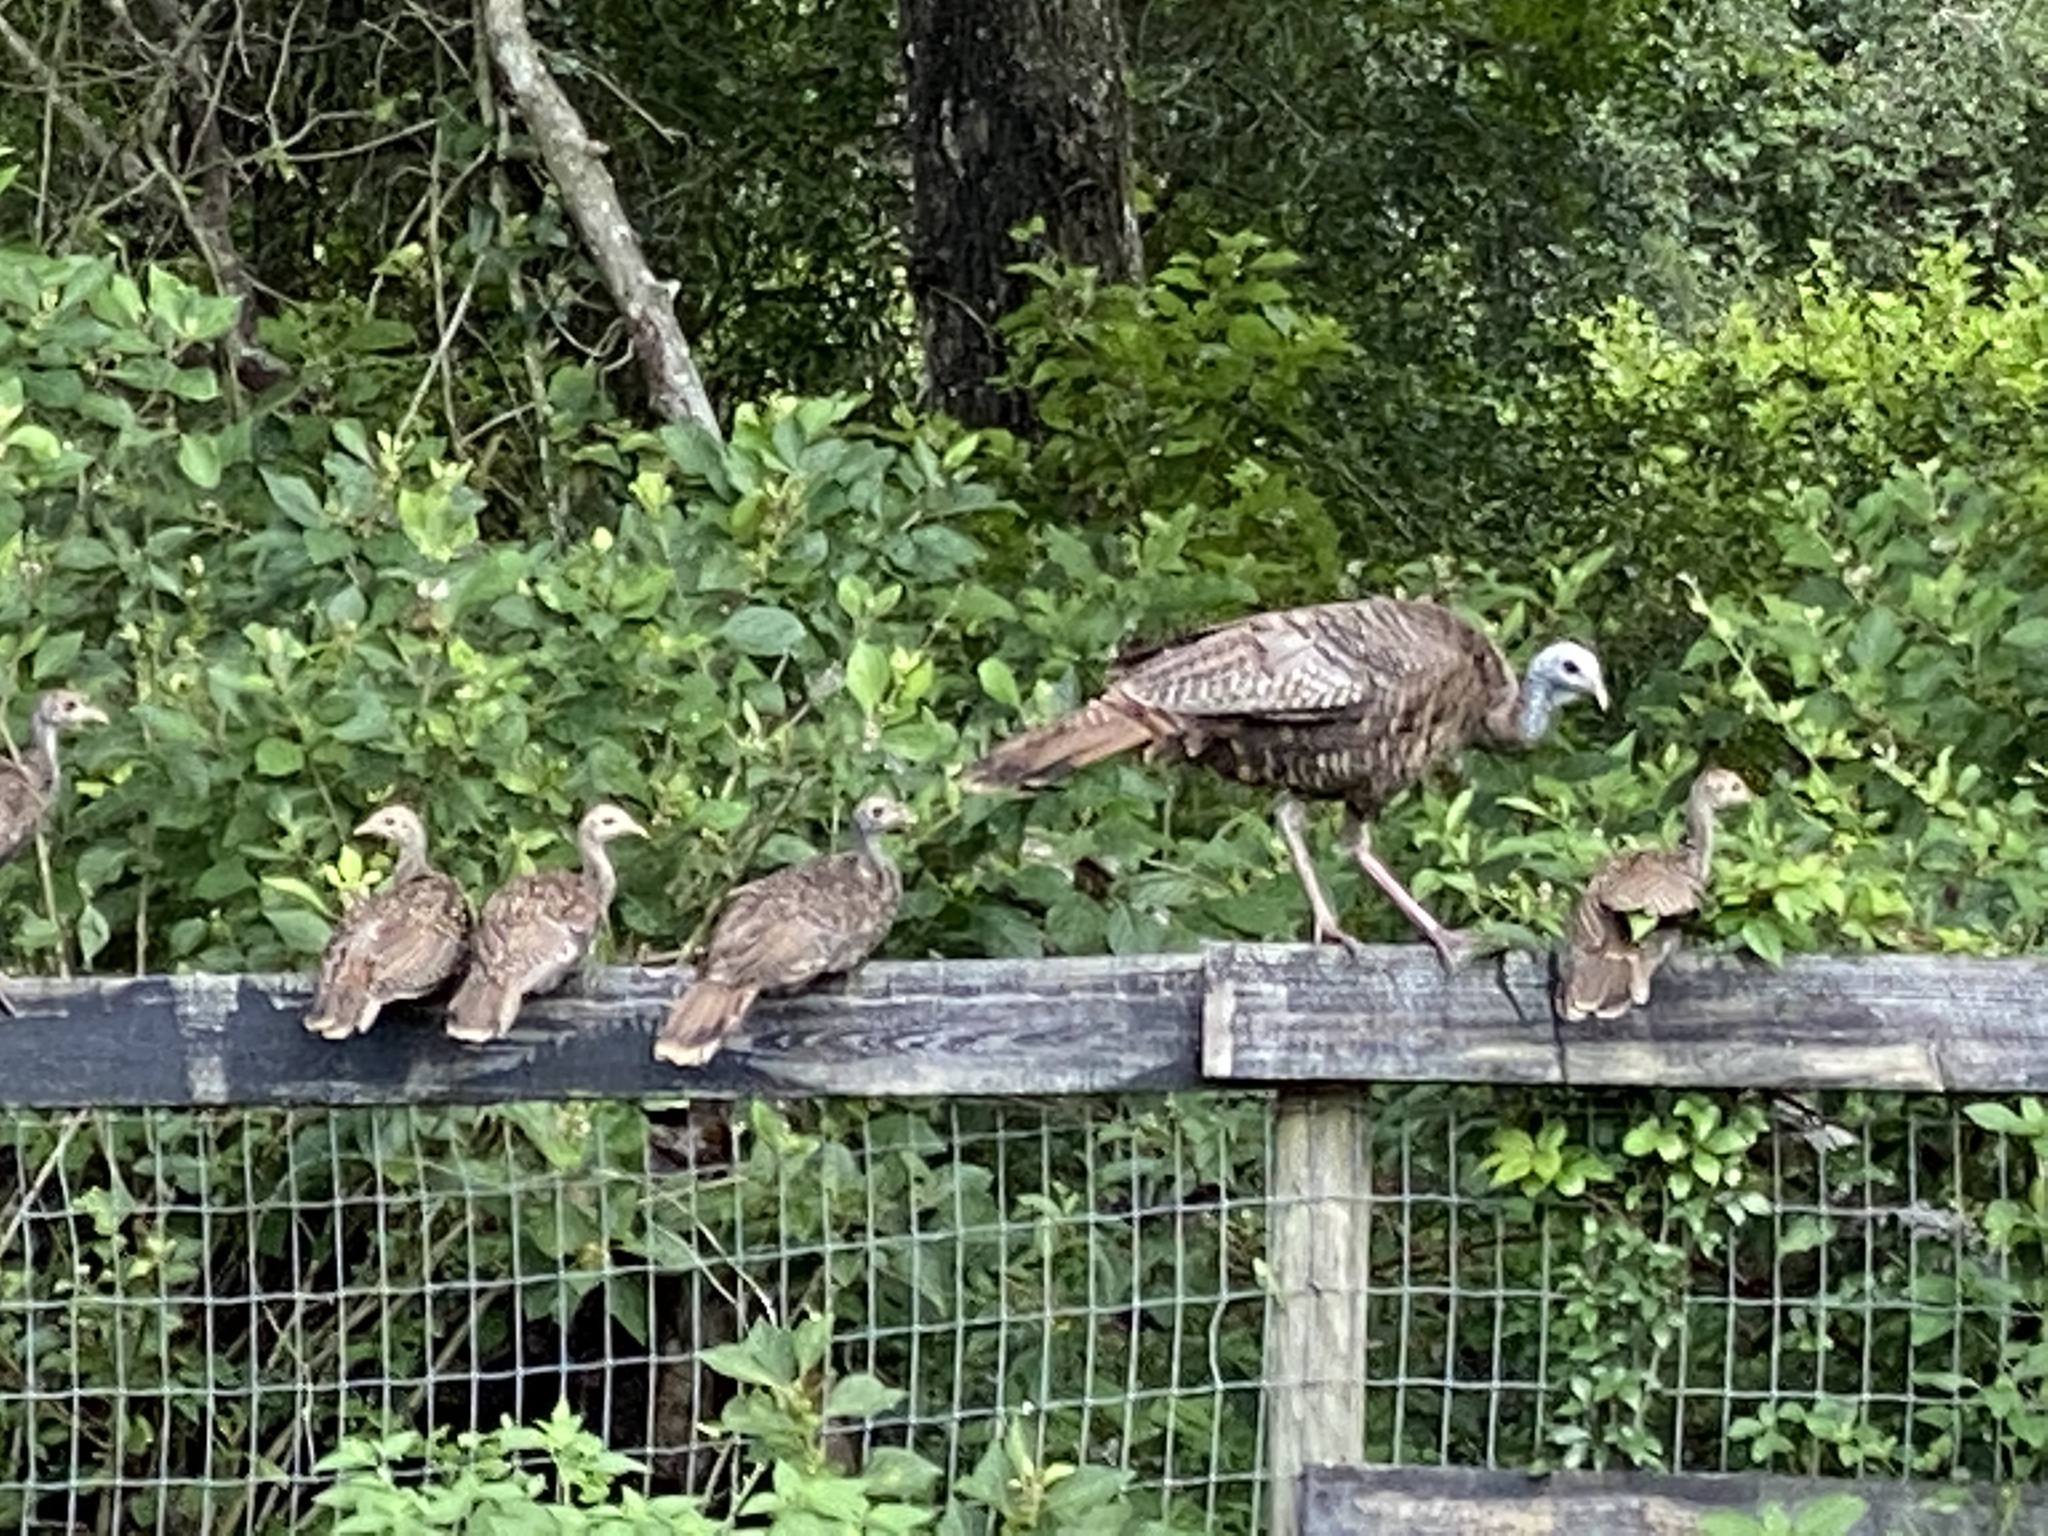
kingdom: Animalia
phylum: Chordata
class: Aves
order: Galliformes
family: Phasianidae
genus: Meleagris
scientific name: Meleagris gallopavo
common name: Wild turkey
